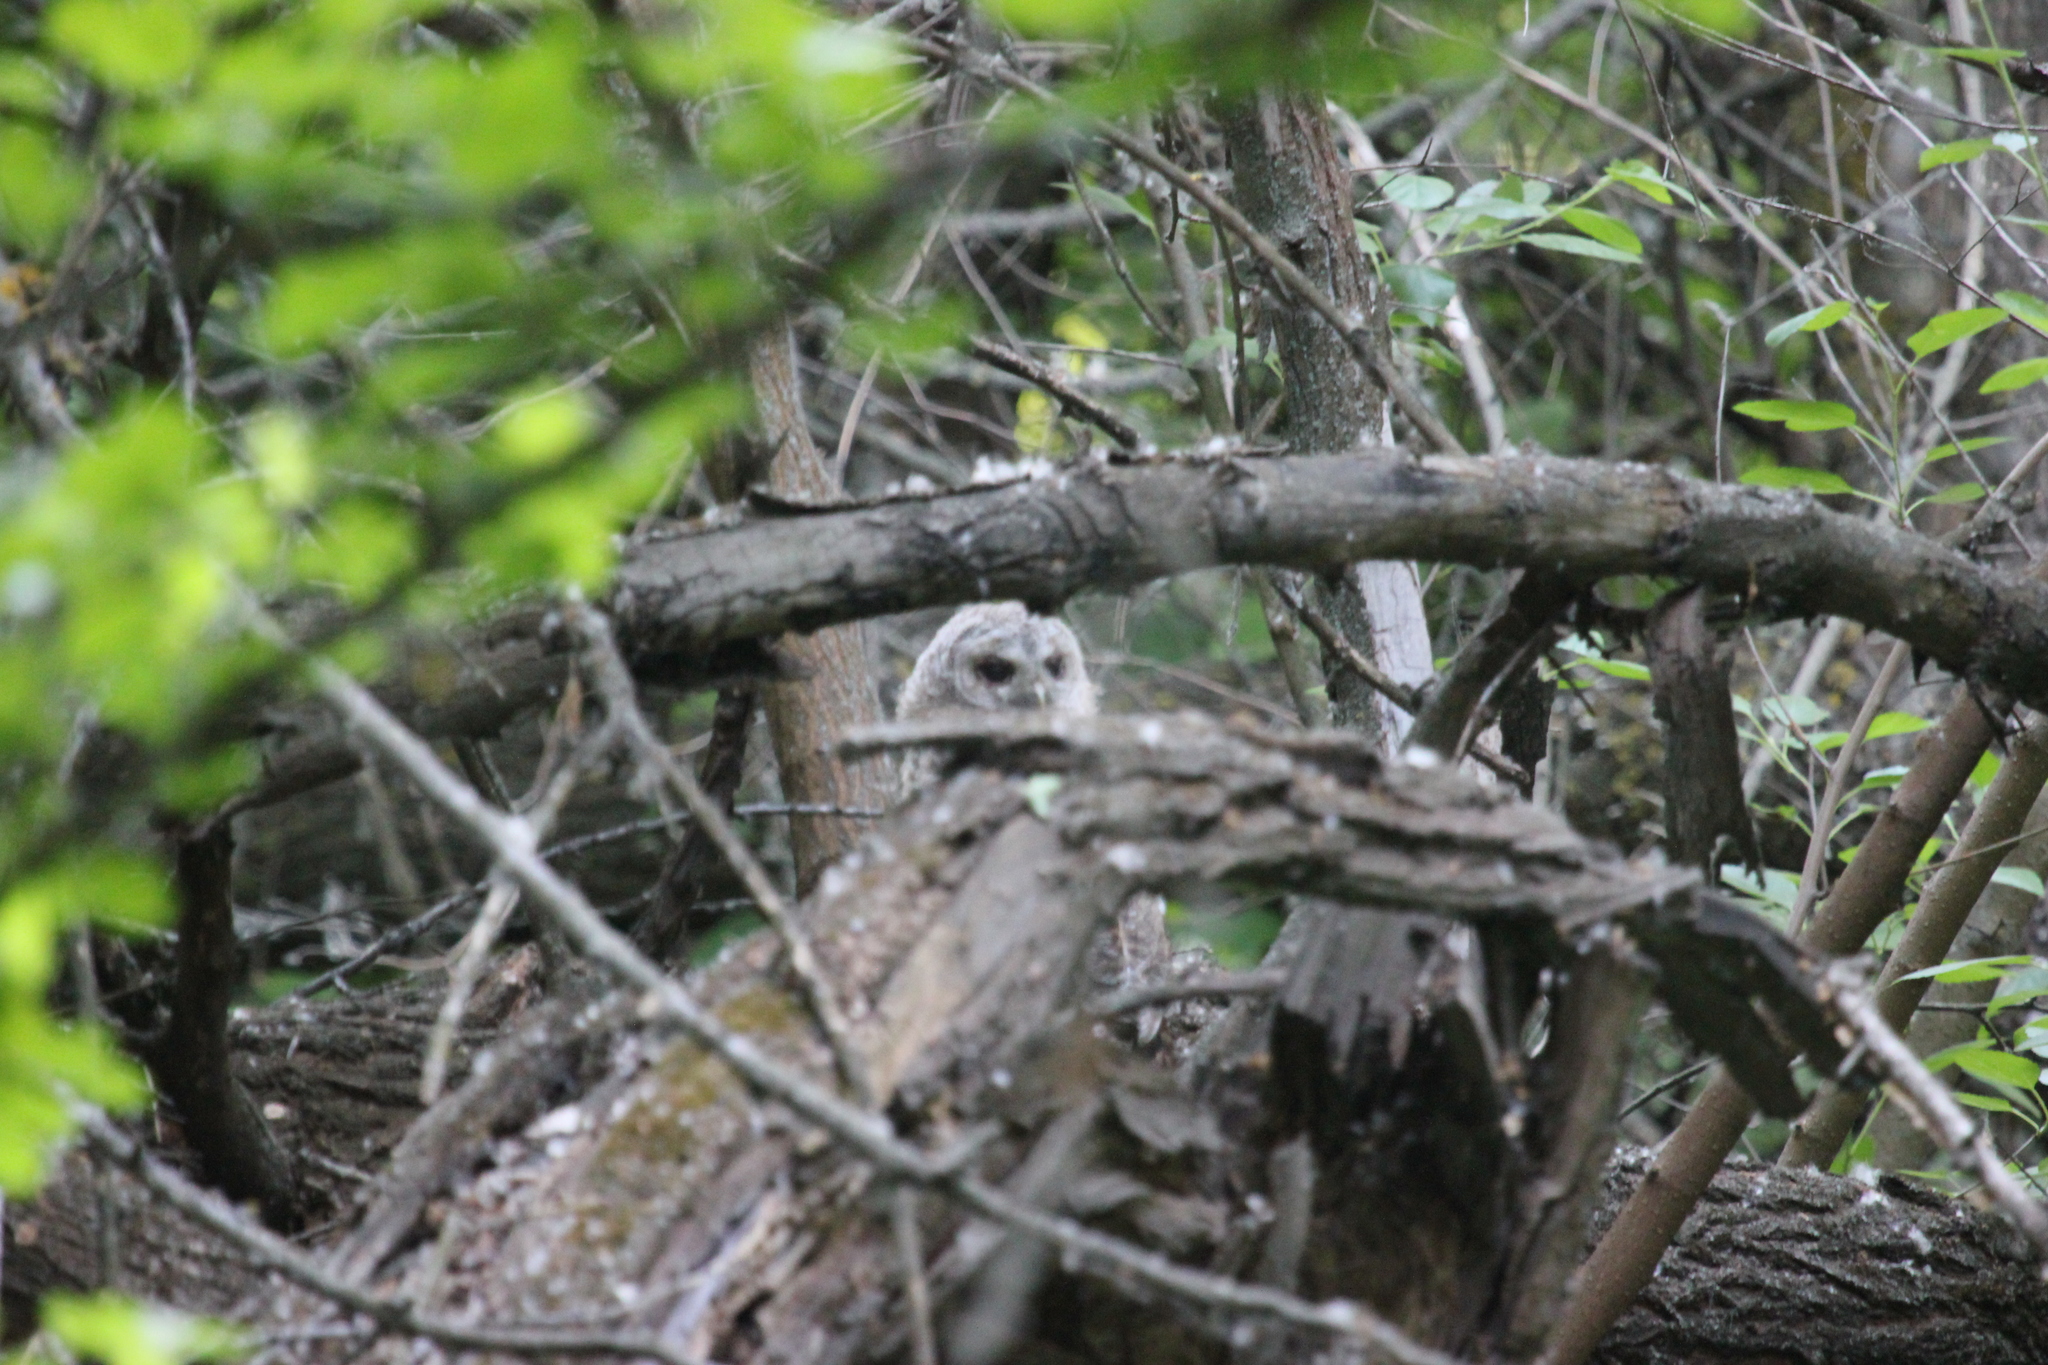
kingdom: Animalia
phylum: Chordata
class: Aves
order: Strigiformes
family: Strigidae
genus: Strix
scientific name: Strix aluco
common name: Tawny owl
